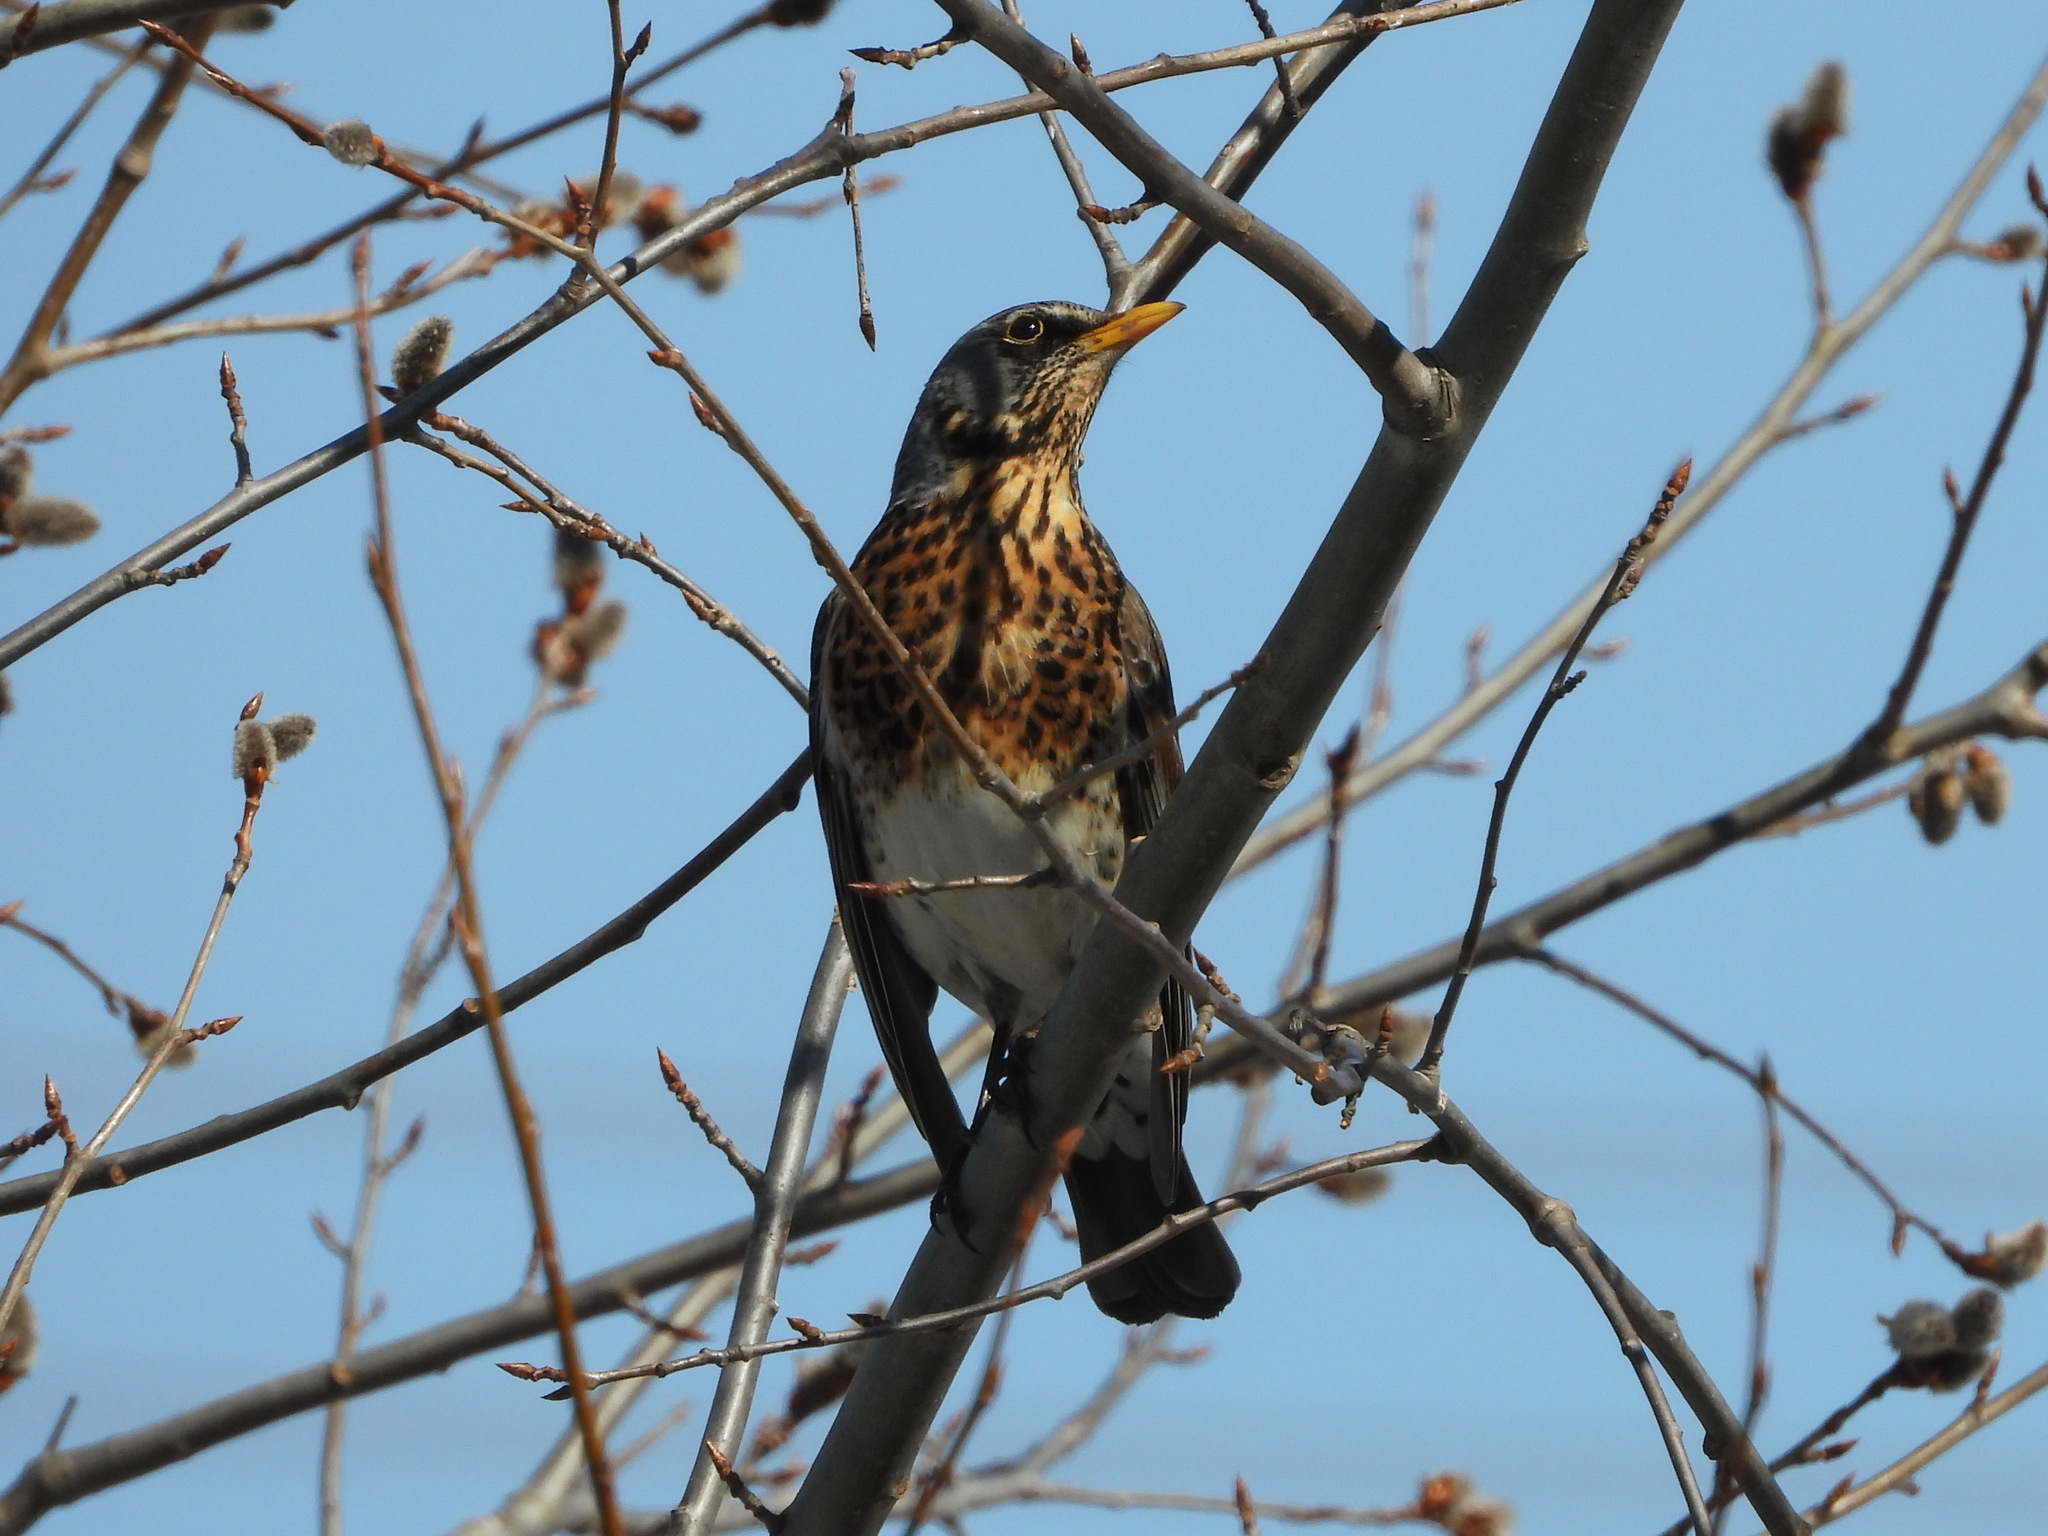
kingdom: Animalia
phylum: Chordata
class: Aves
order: Passeriformes
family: Turdidae
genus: Turdus
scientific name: Turdus pilaris
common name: Fieldfare
